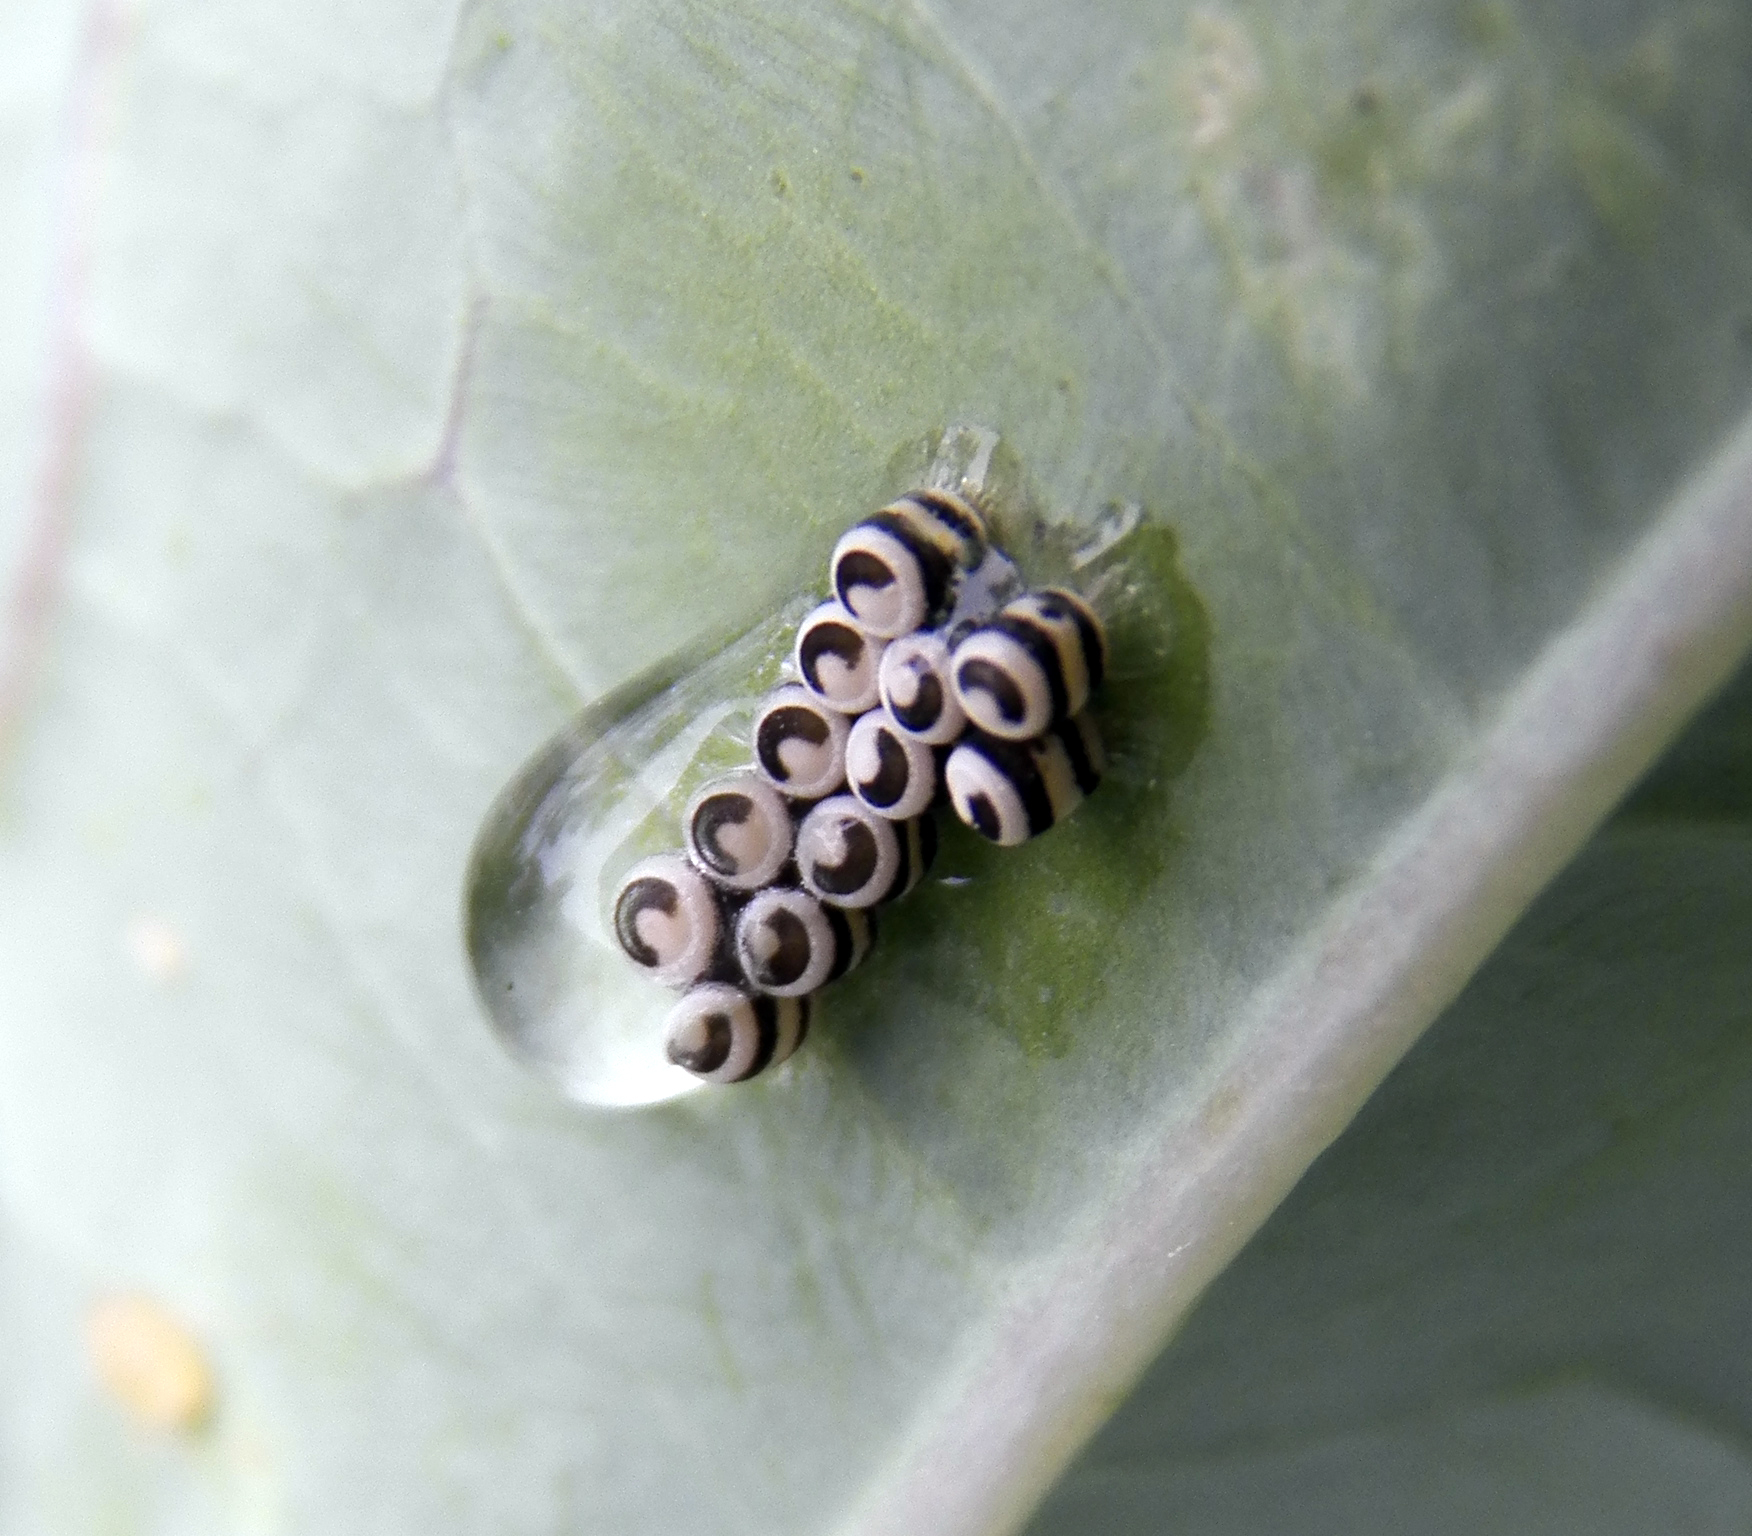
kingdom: Animalia
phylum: Arthropoda
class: Insecta
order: Hemiptera
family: Pentatomidae
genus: Murgantia
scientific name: Murgantia histrionica
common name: Harlequin bug
